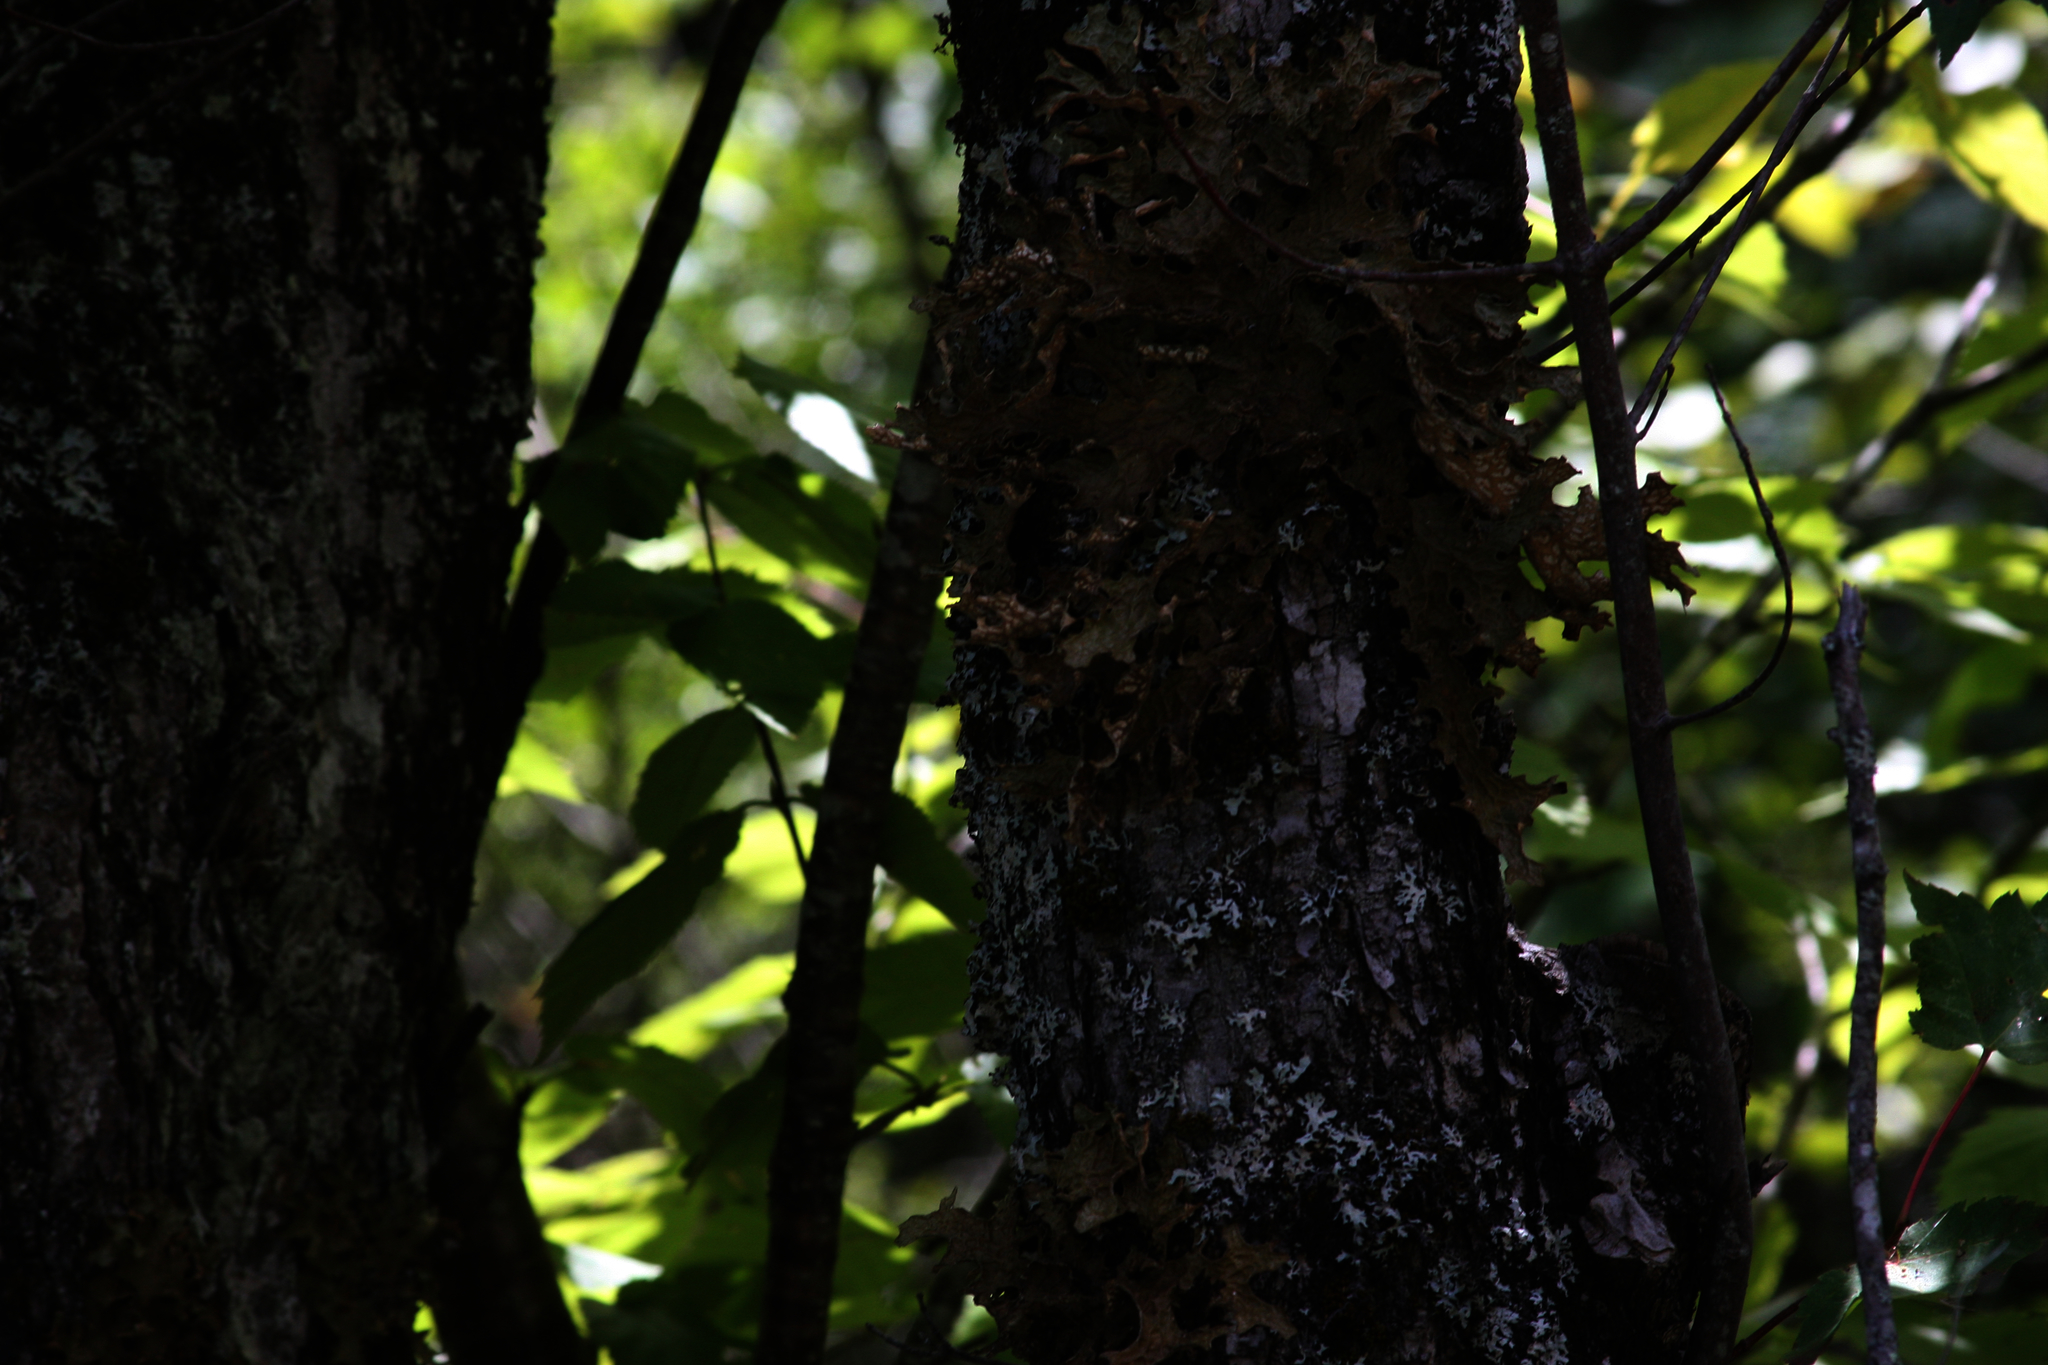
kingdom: Fungi
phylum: Ascomycota
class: Lecanoromycetes
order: Peltigerales
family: Lobariaceae
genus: Lobaria
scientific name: Lobaria pulmonaria
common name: Lungwort
